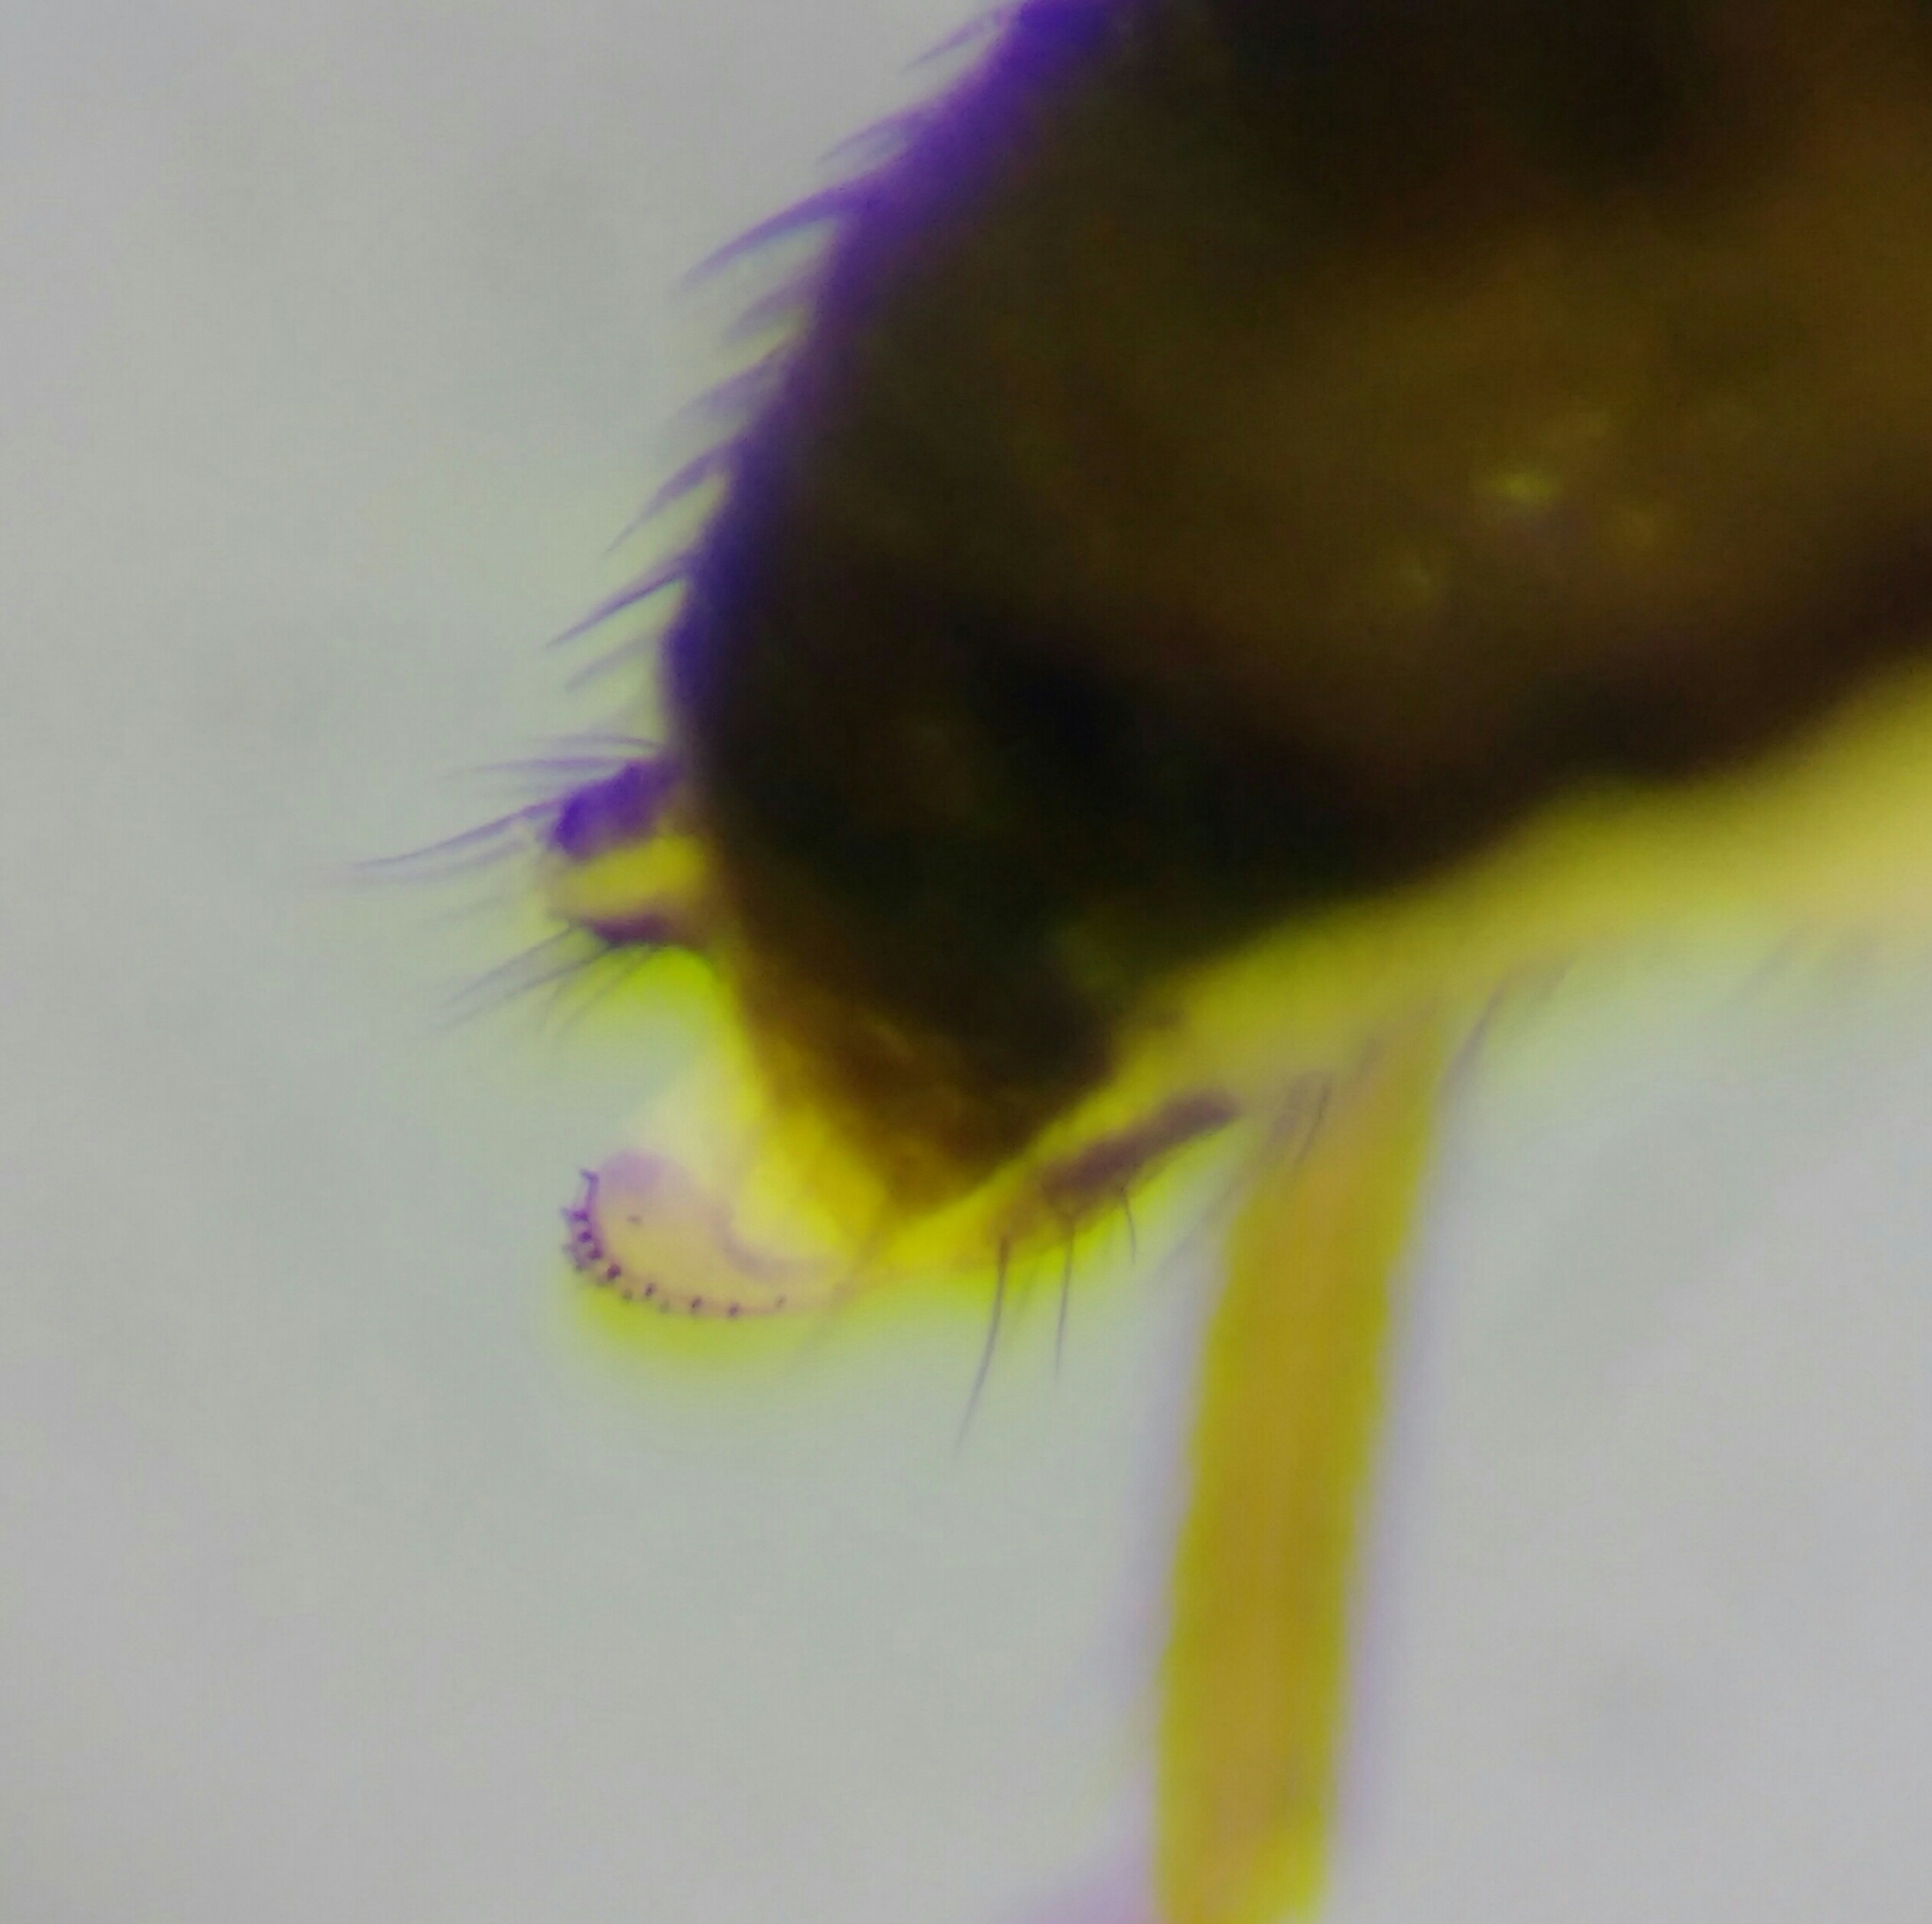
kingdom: Animalia
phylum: Arthropoda
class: Insecta
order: Diptera
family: Drosophilidae
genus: Drosophila
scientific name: Drosophila bifasciata
